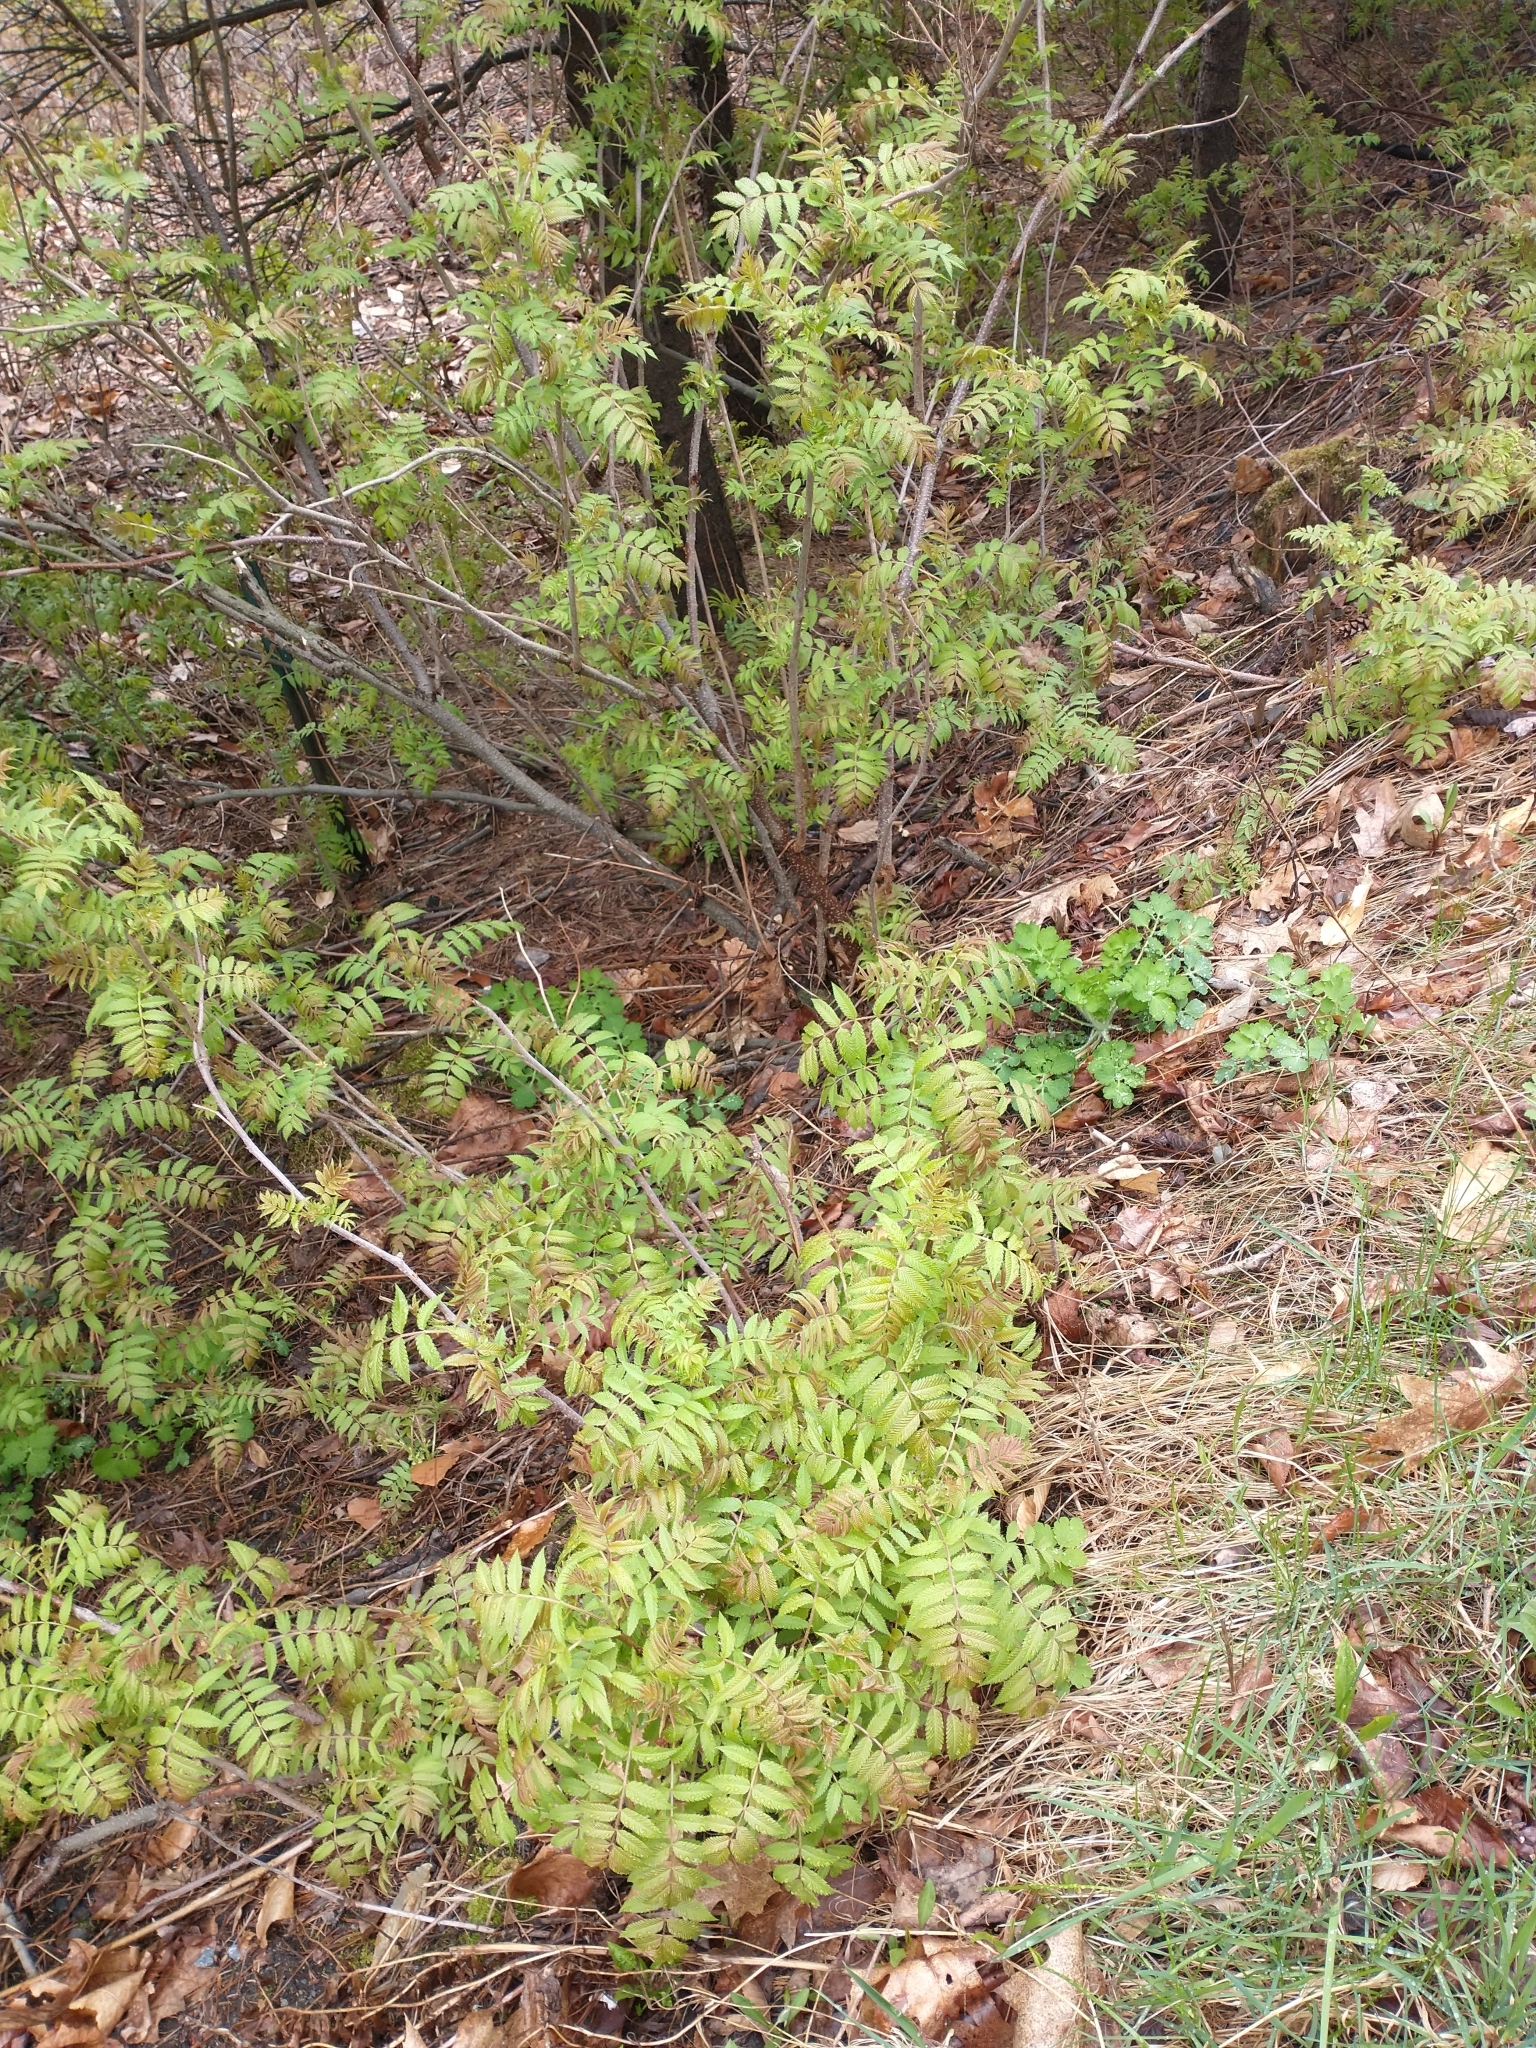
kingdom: Plantae
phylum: Tracheophyta
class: Magnoliopsida
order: Rosales
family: Rosaceae
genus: Sorbaria
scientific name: Sorbaria sorbifolia
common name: False spiraea
